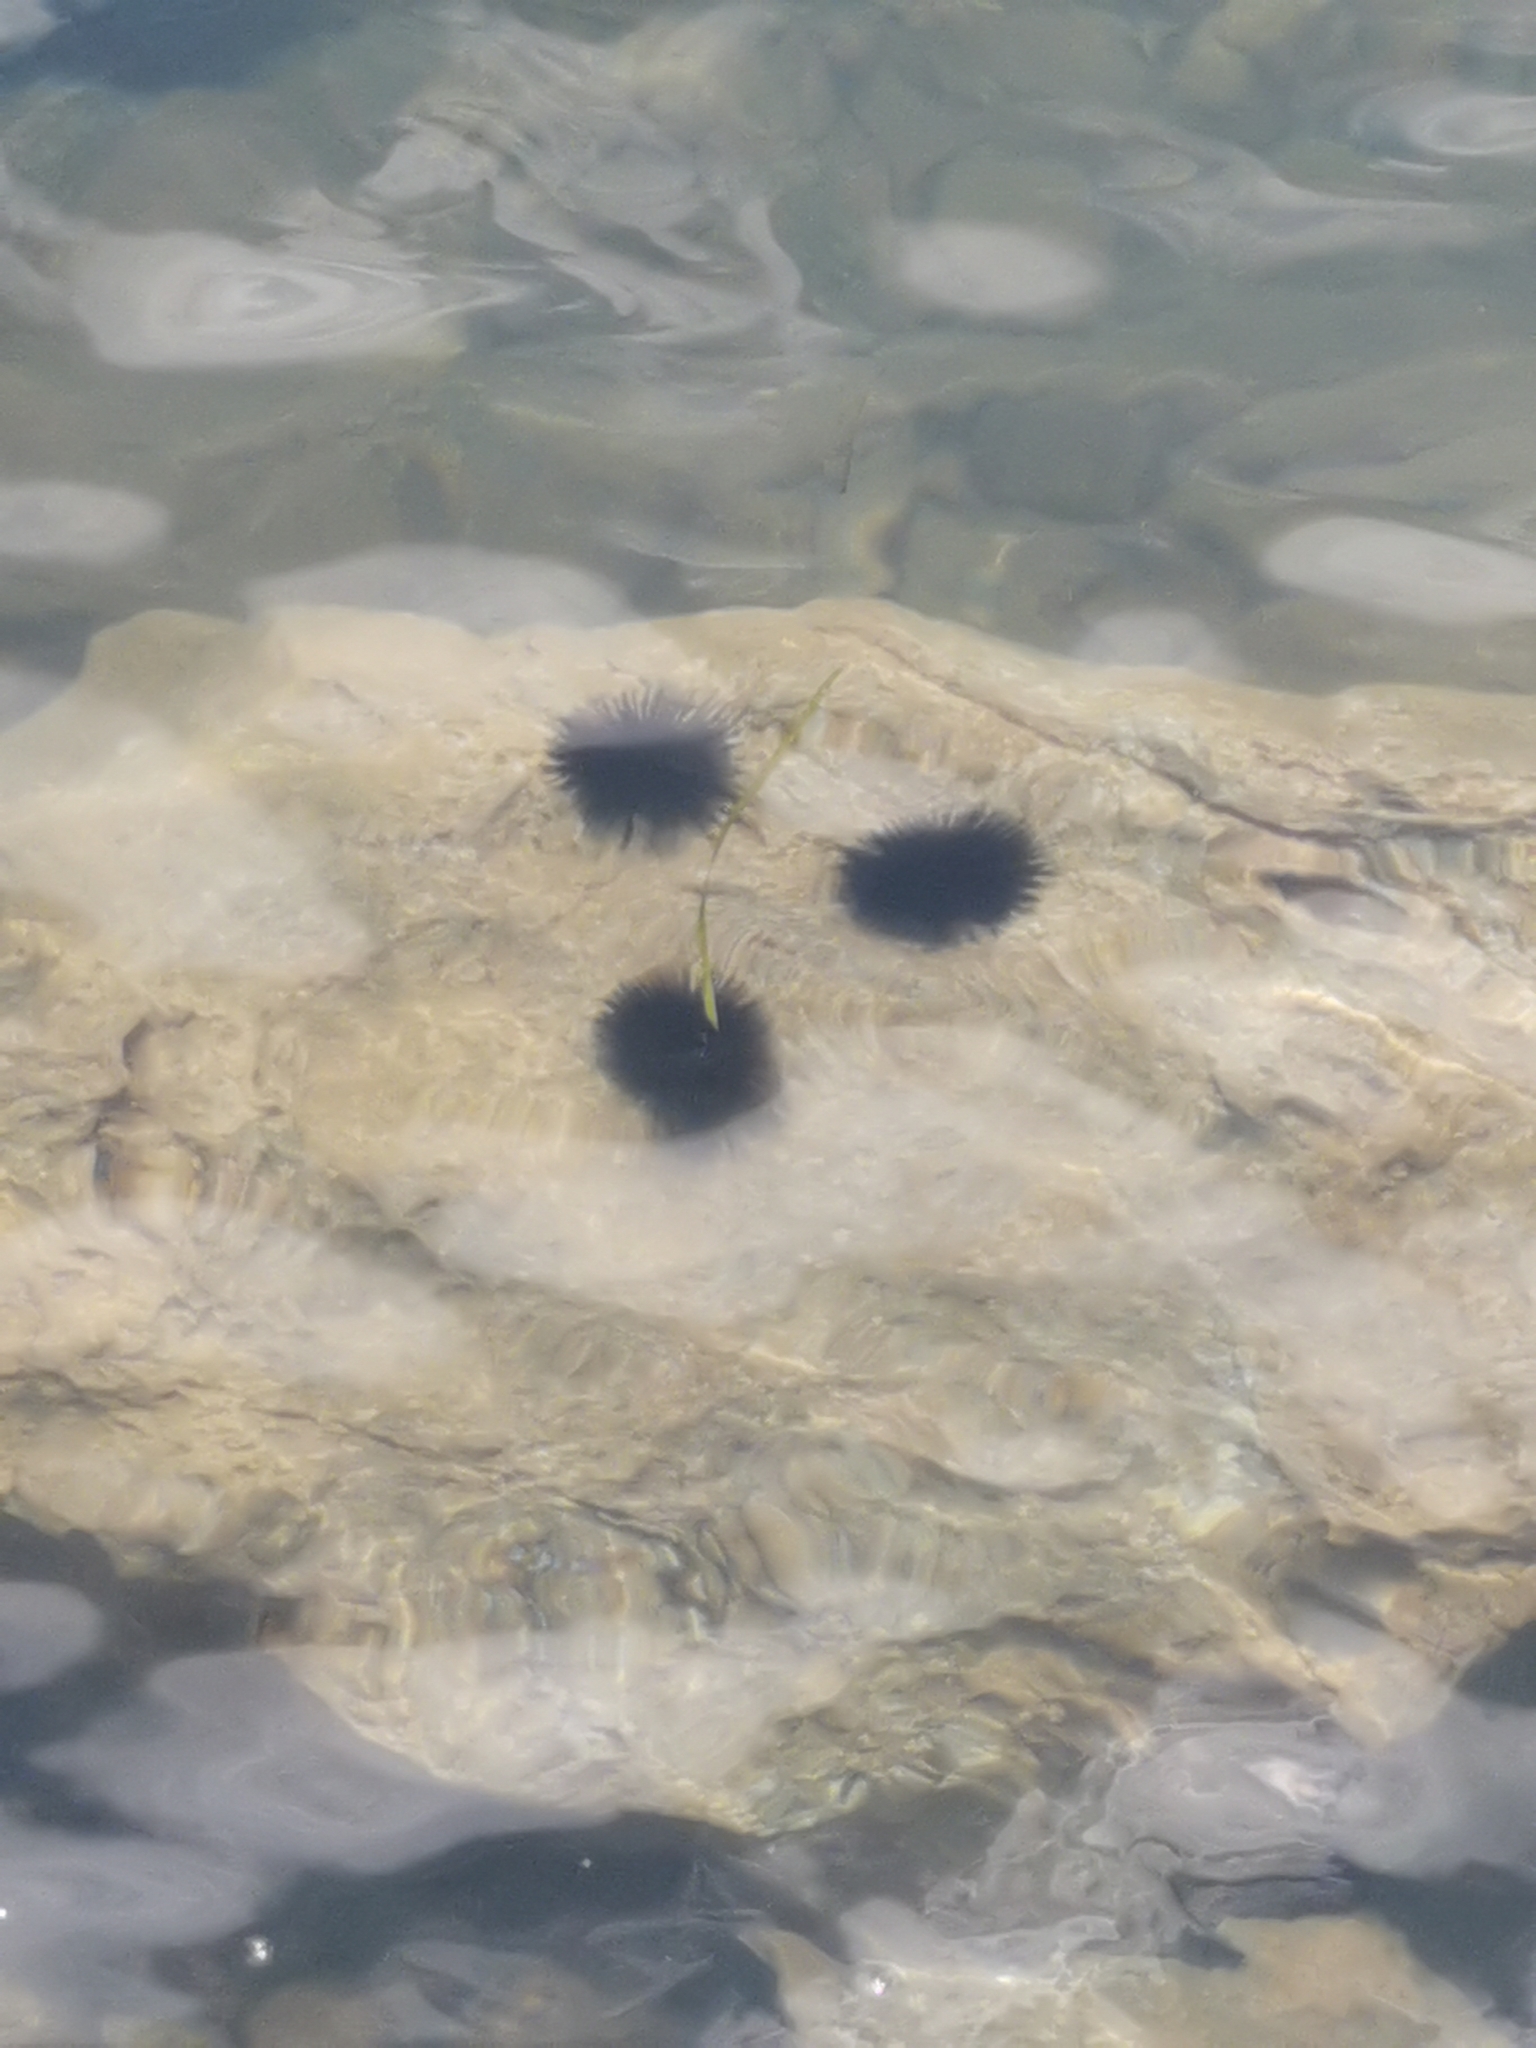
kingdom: Animalia
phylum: Echinodermata
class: Echinoidea
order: Arbacioida
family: Arbaciidae
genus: Arbacia
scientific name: Arbacia lixula
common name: Black sea urchin
